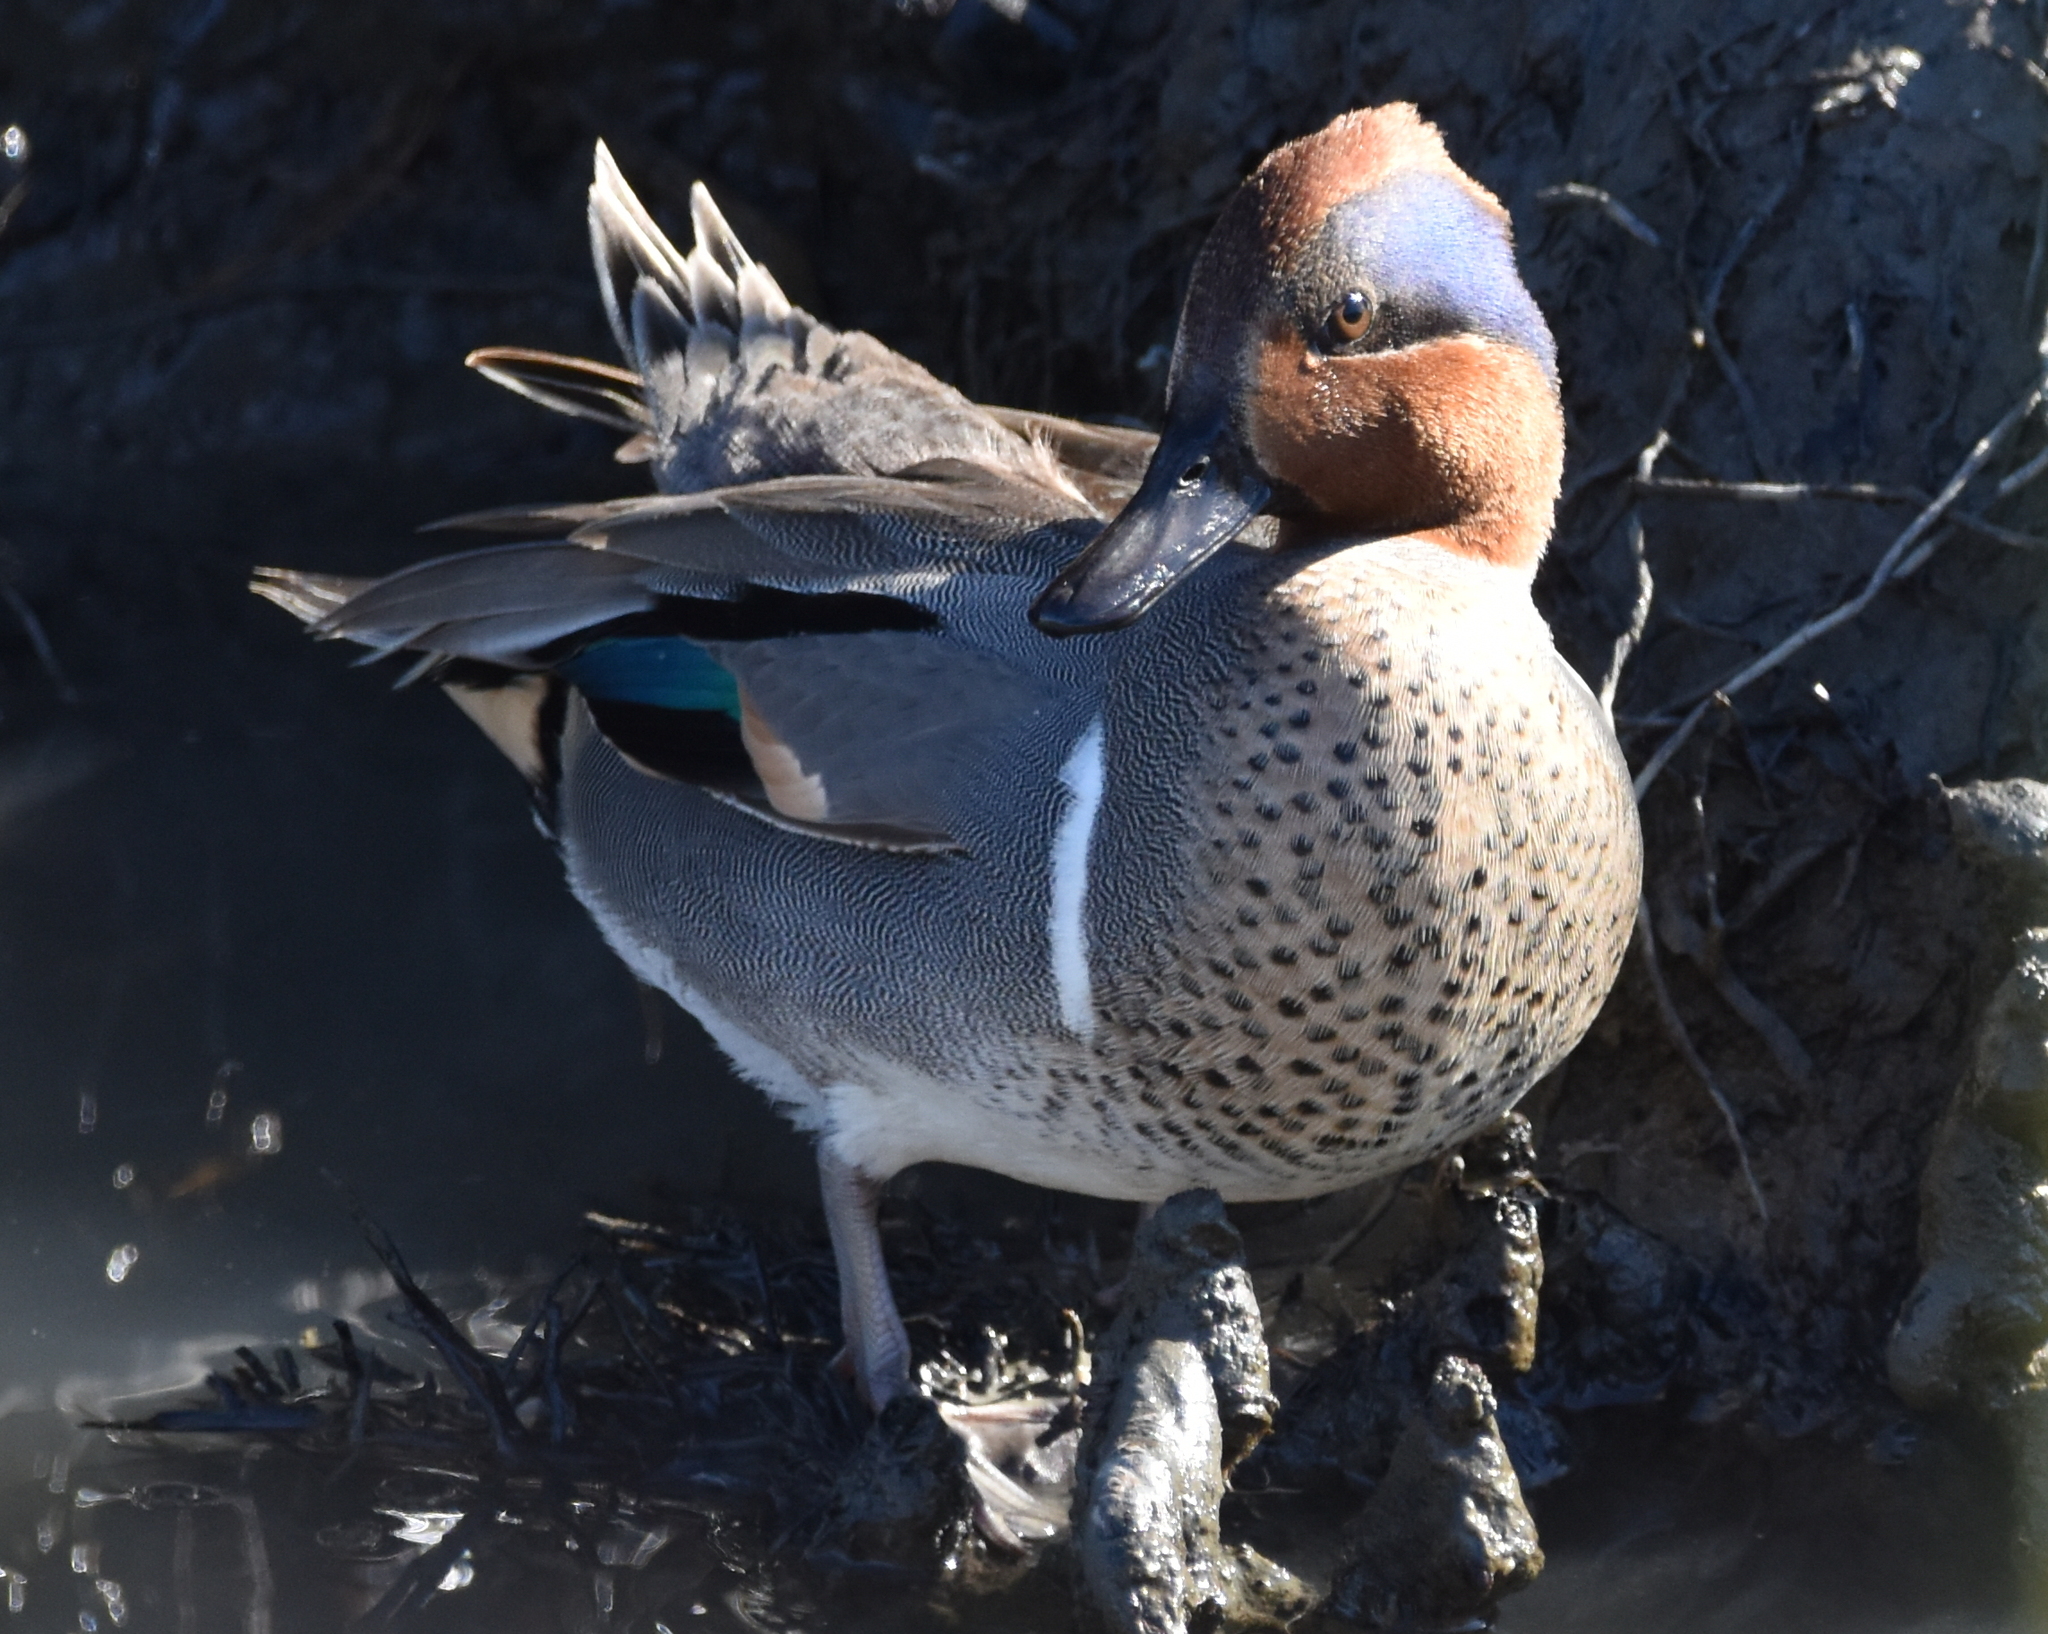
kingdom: Animalia
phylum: Chordata
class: Aves
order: Anseriformes
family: Anatidae
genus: Anas
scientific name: Anas crecca
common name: Eurasian teal
